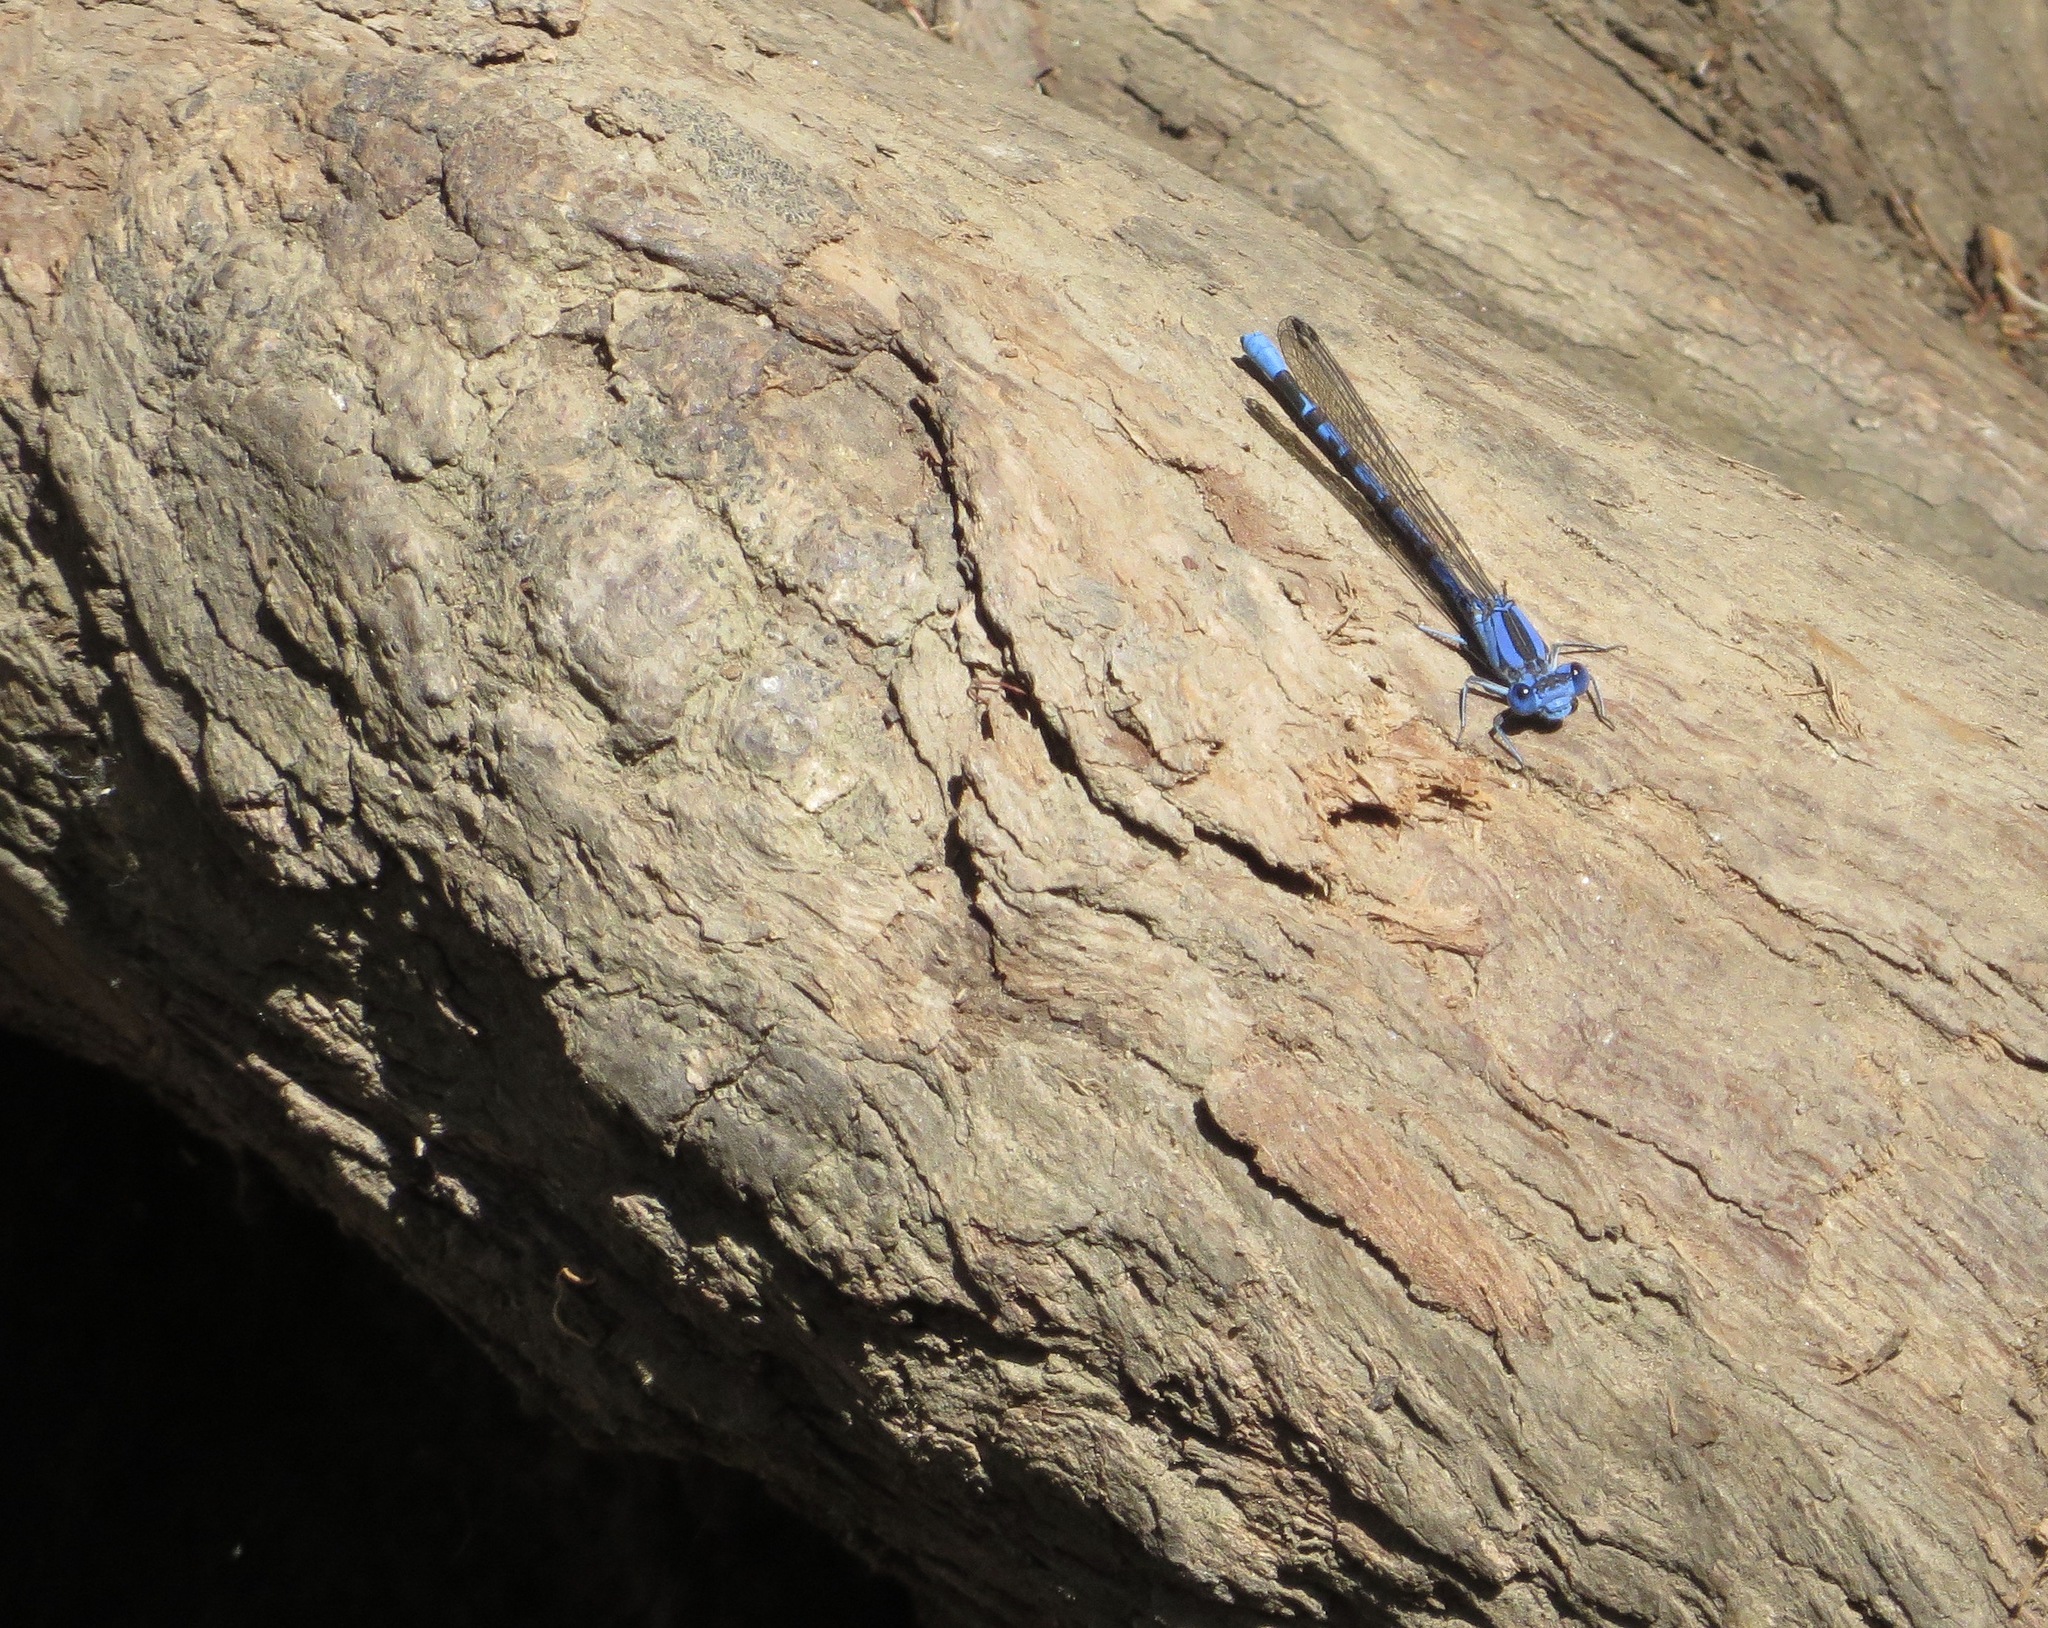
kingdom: Animalia
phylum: Arthropoda
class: Insecta
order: Odonata
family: Coenagrionidae
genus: Argia
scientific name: Argia vivida
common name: Vivid dancer
